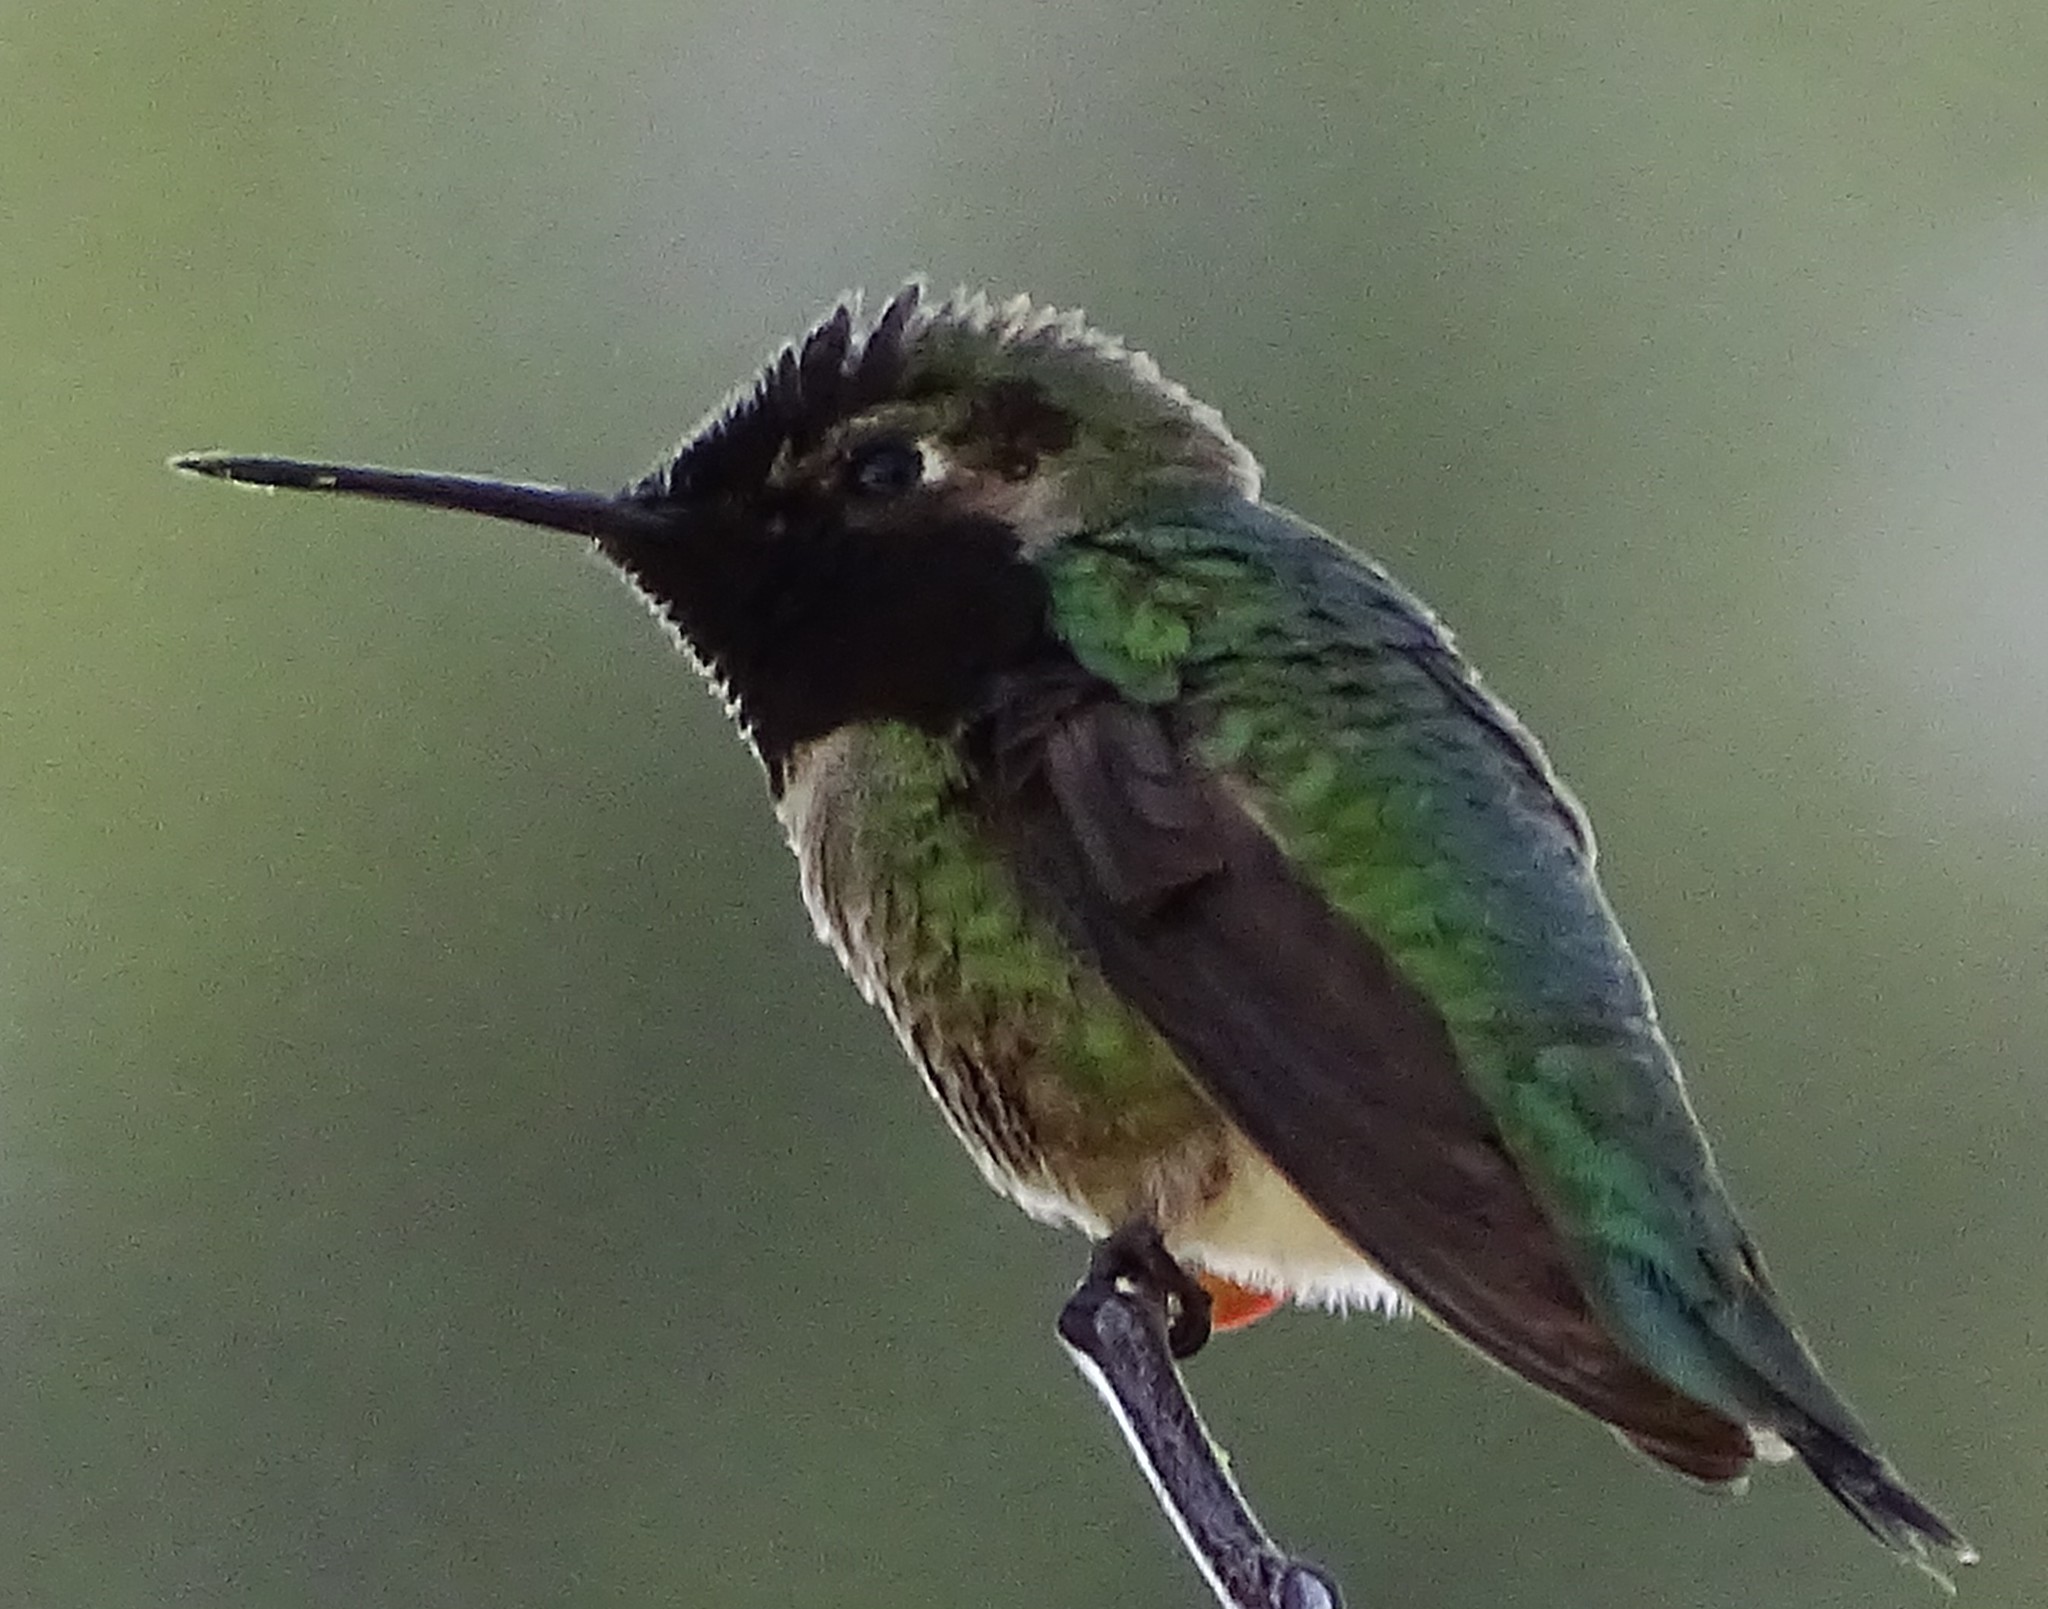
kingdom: Animalia
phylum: Chordata
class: Aves
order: Apodiformes
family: Trochilidae
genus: Calypte
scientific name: Calypte anna
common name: Anna's hummingbird
